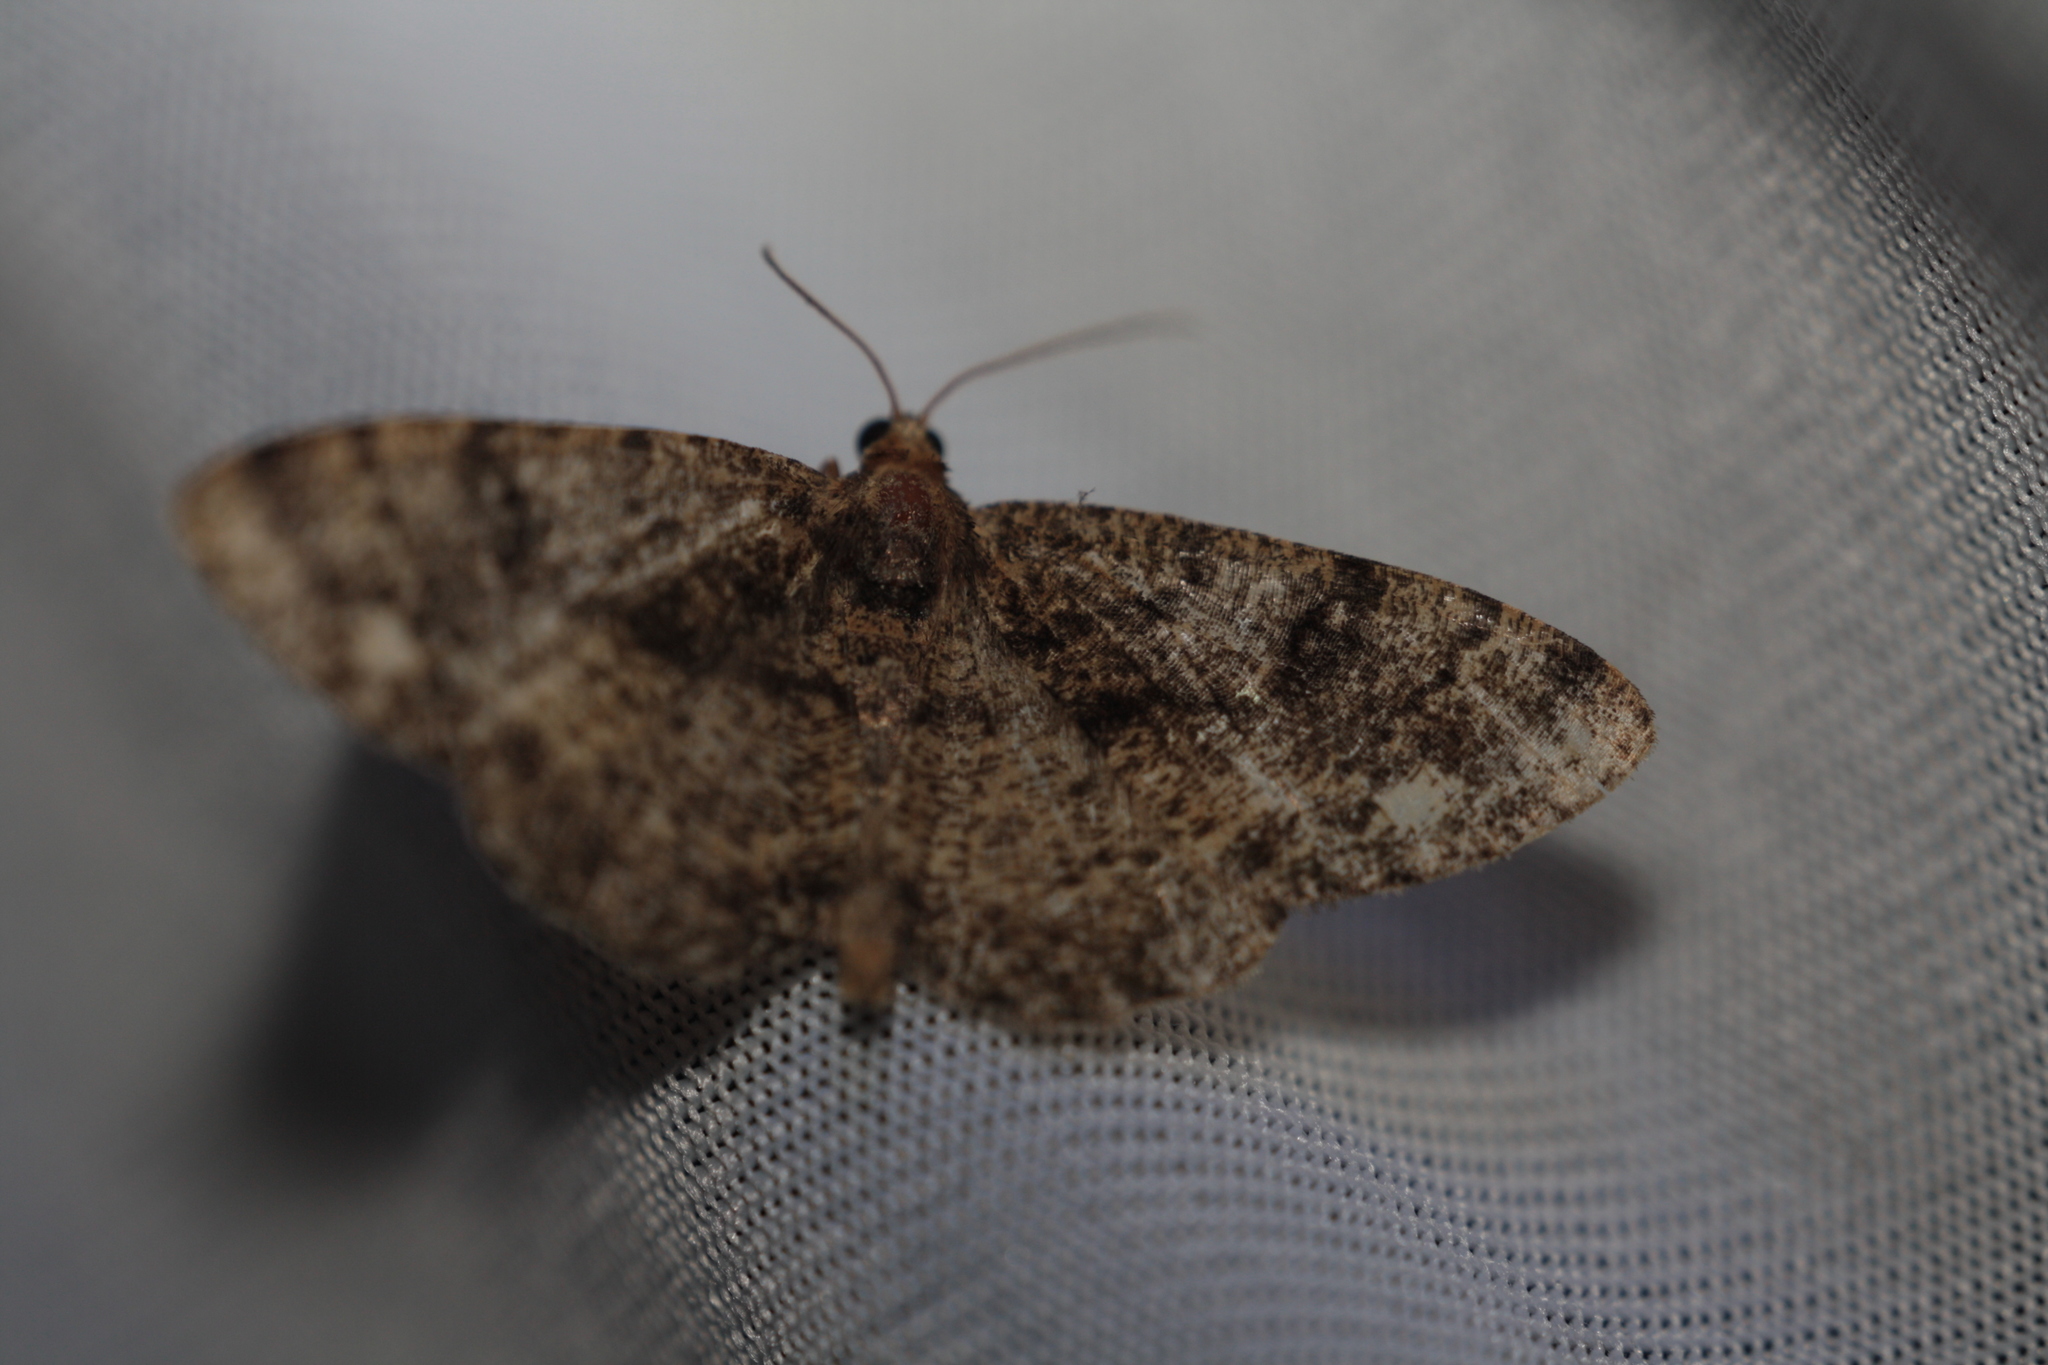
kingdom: Animalia
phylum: Arthropoda
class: Insecta
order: Lepidoptera
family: Geometridae
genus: Parectropis
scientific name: Parectropis similaria
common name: Brindled white-spot
